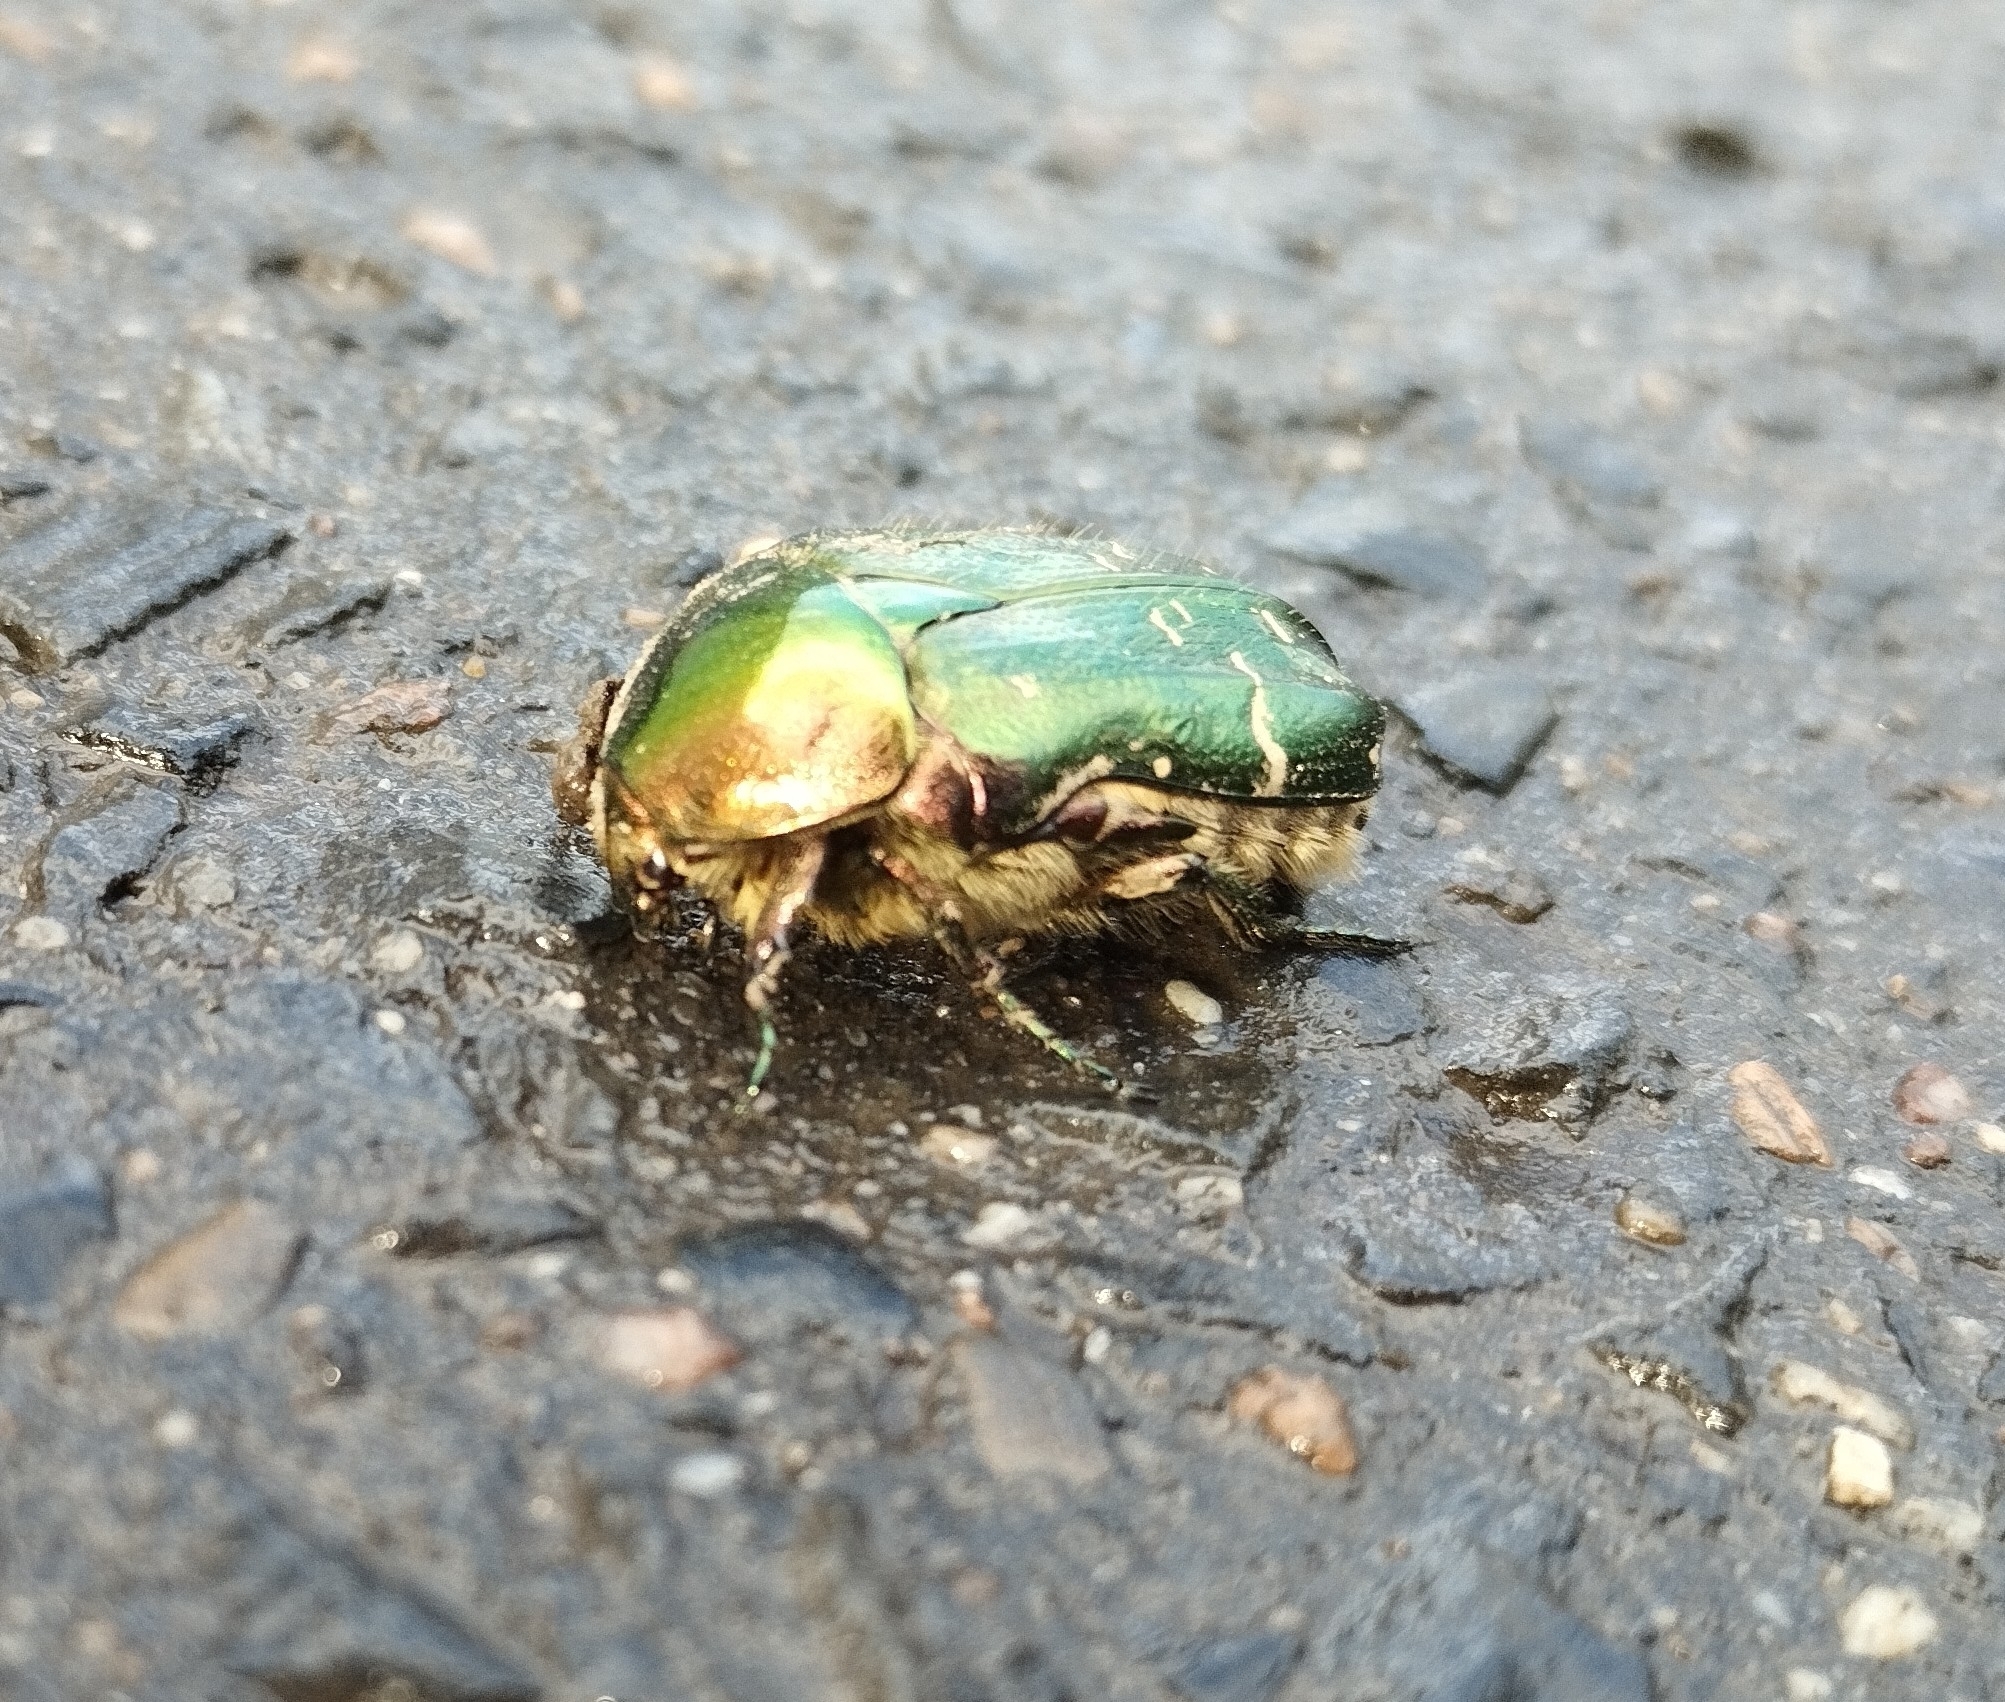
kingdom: Animalia
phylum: Arthropoda
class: Insecta
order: Coleoptera
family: Scarabaeidae
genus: Cetonia
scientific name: Cetonia aurata
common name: Rose chafer
